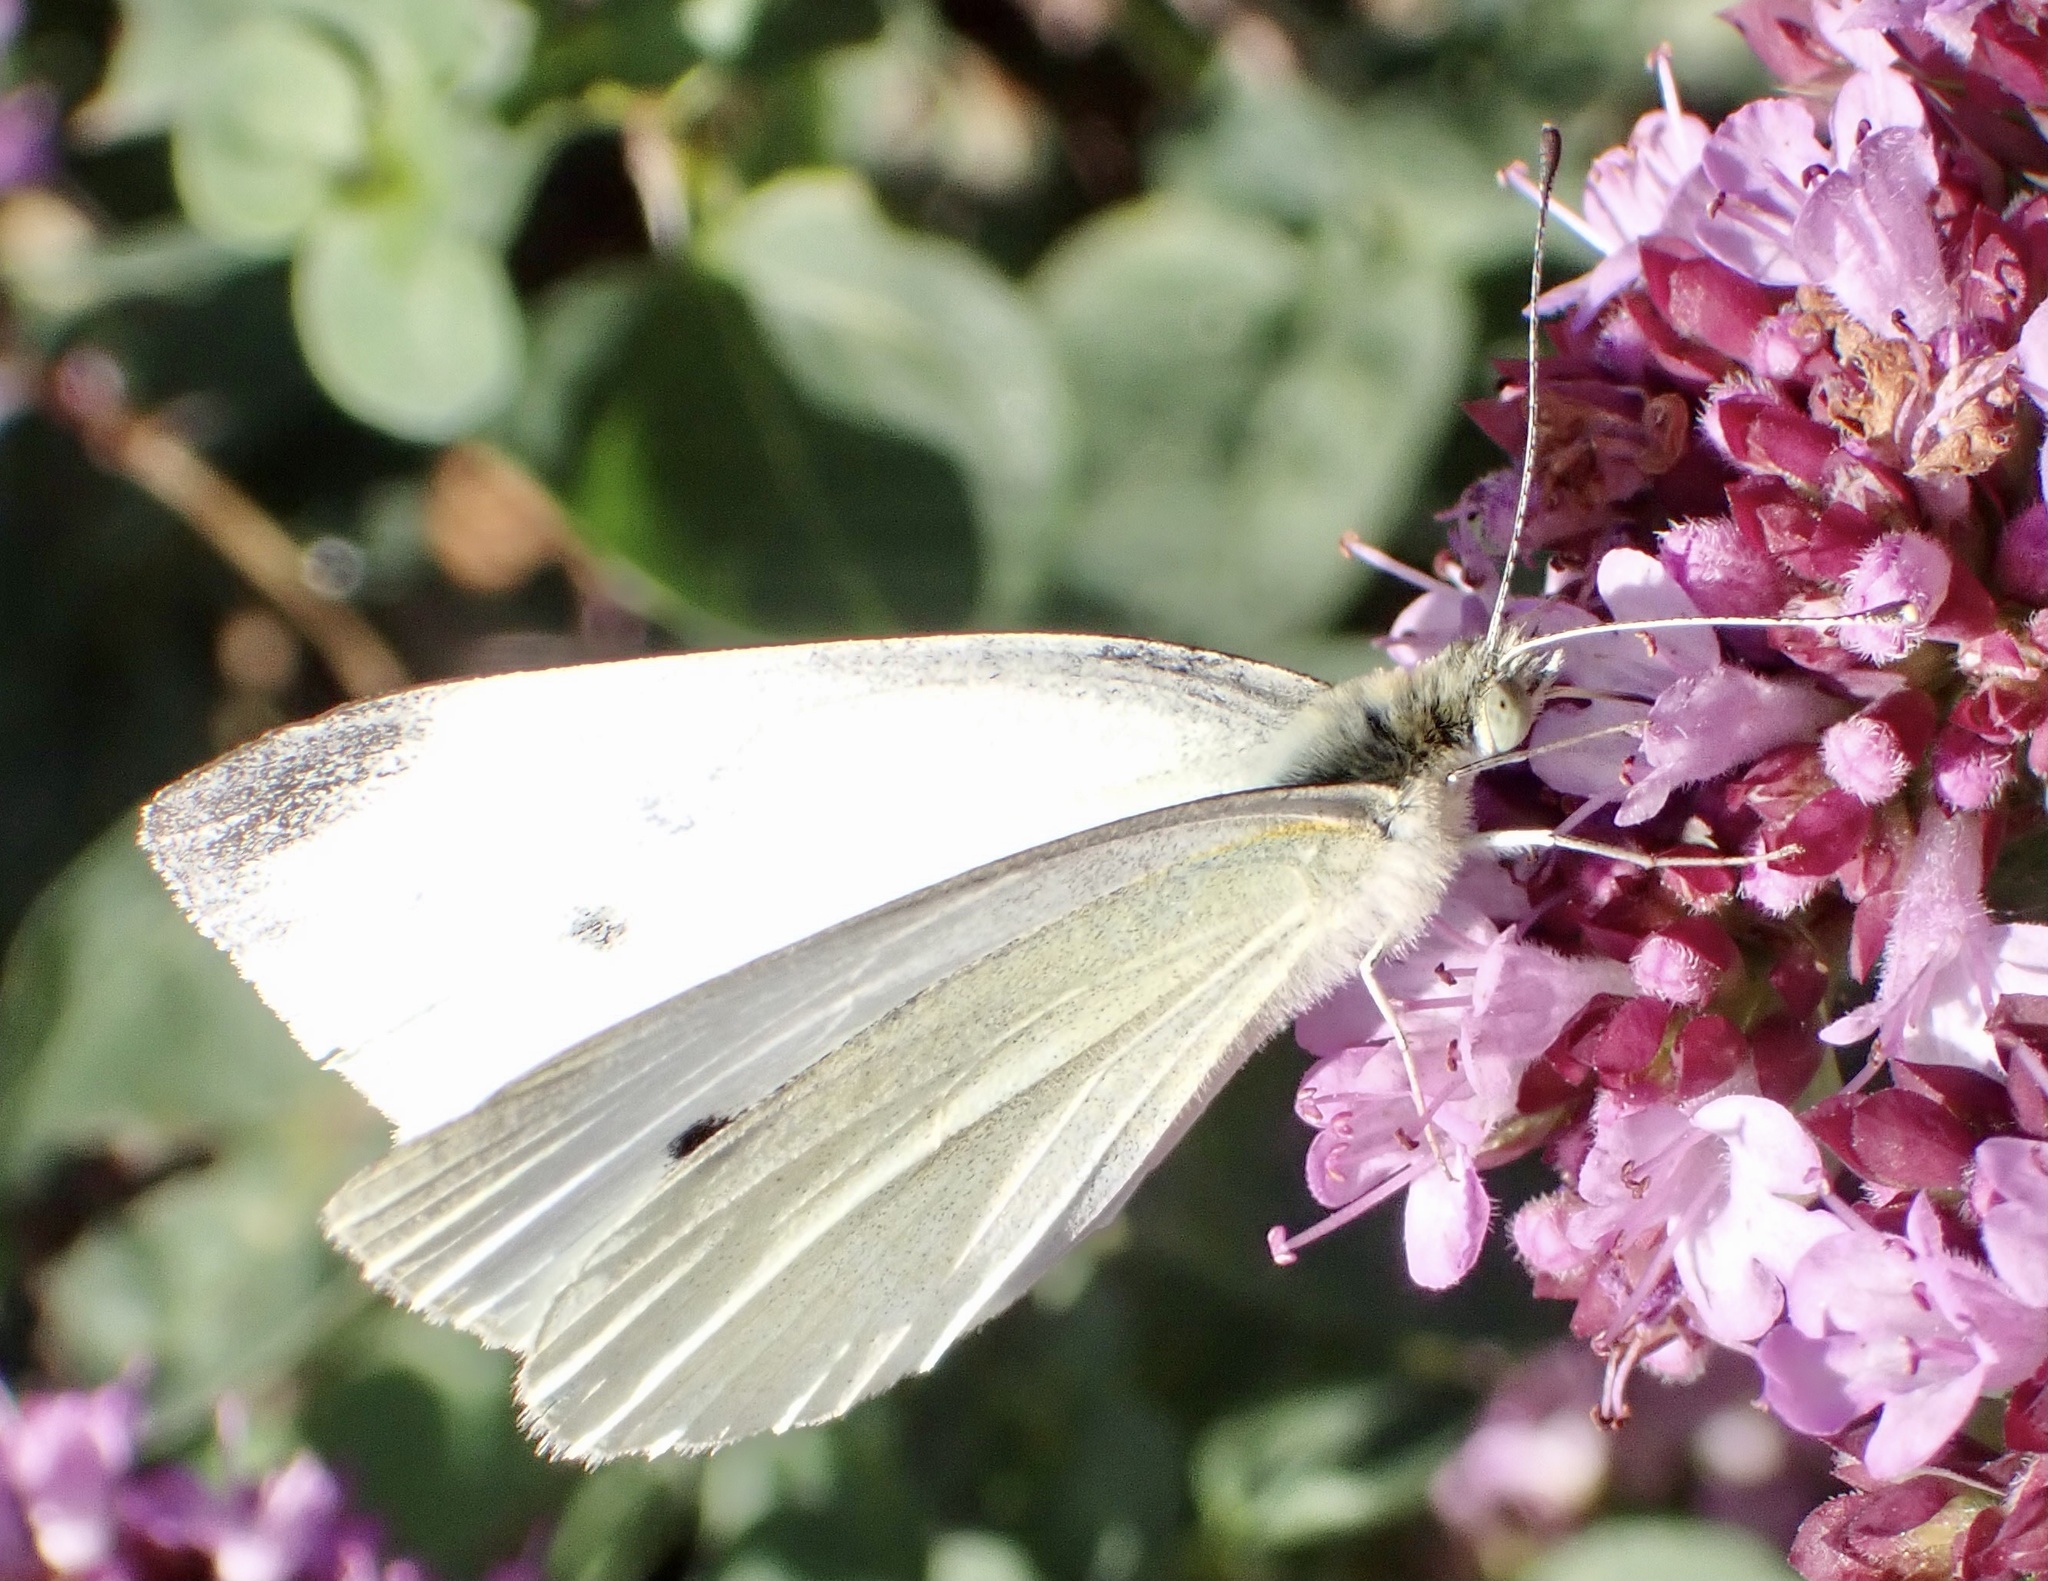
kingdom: Animalia
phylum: Arthropoda
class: Insecta
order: Lepidoptera
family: Pieridae
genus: Pieris
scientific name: Pieris rapae
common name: Small white
